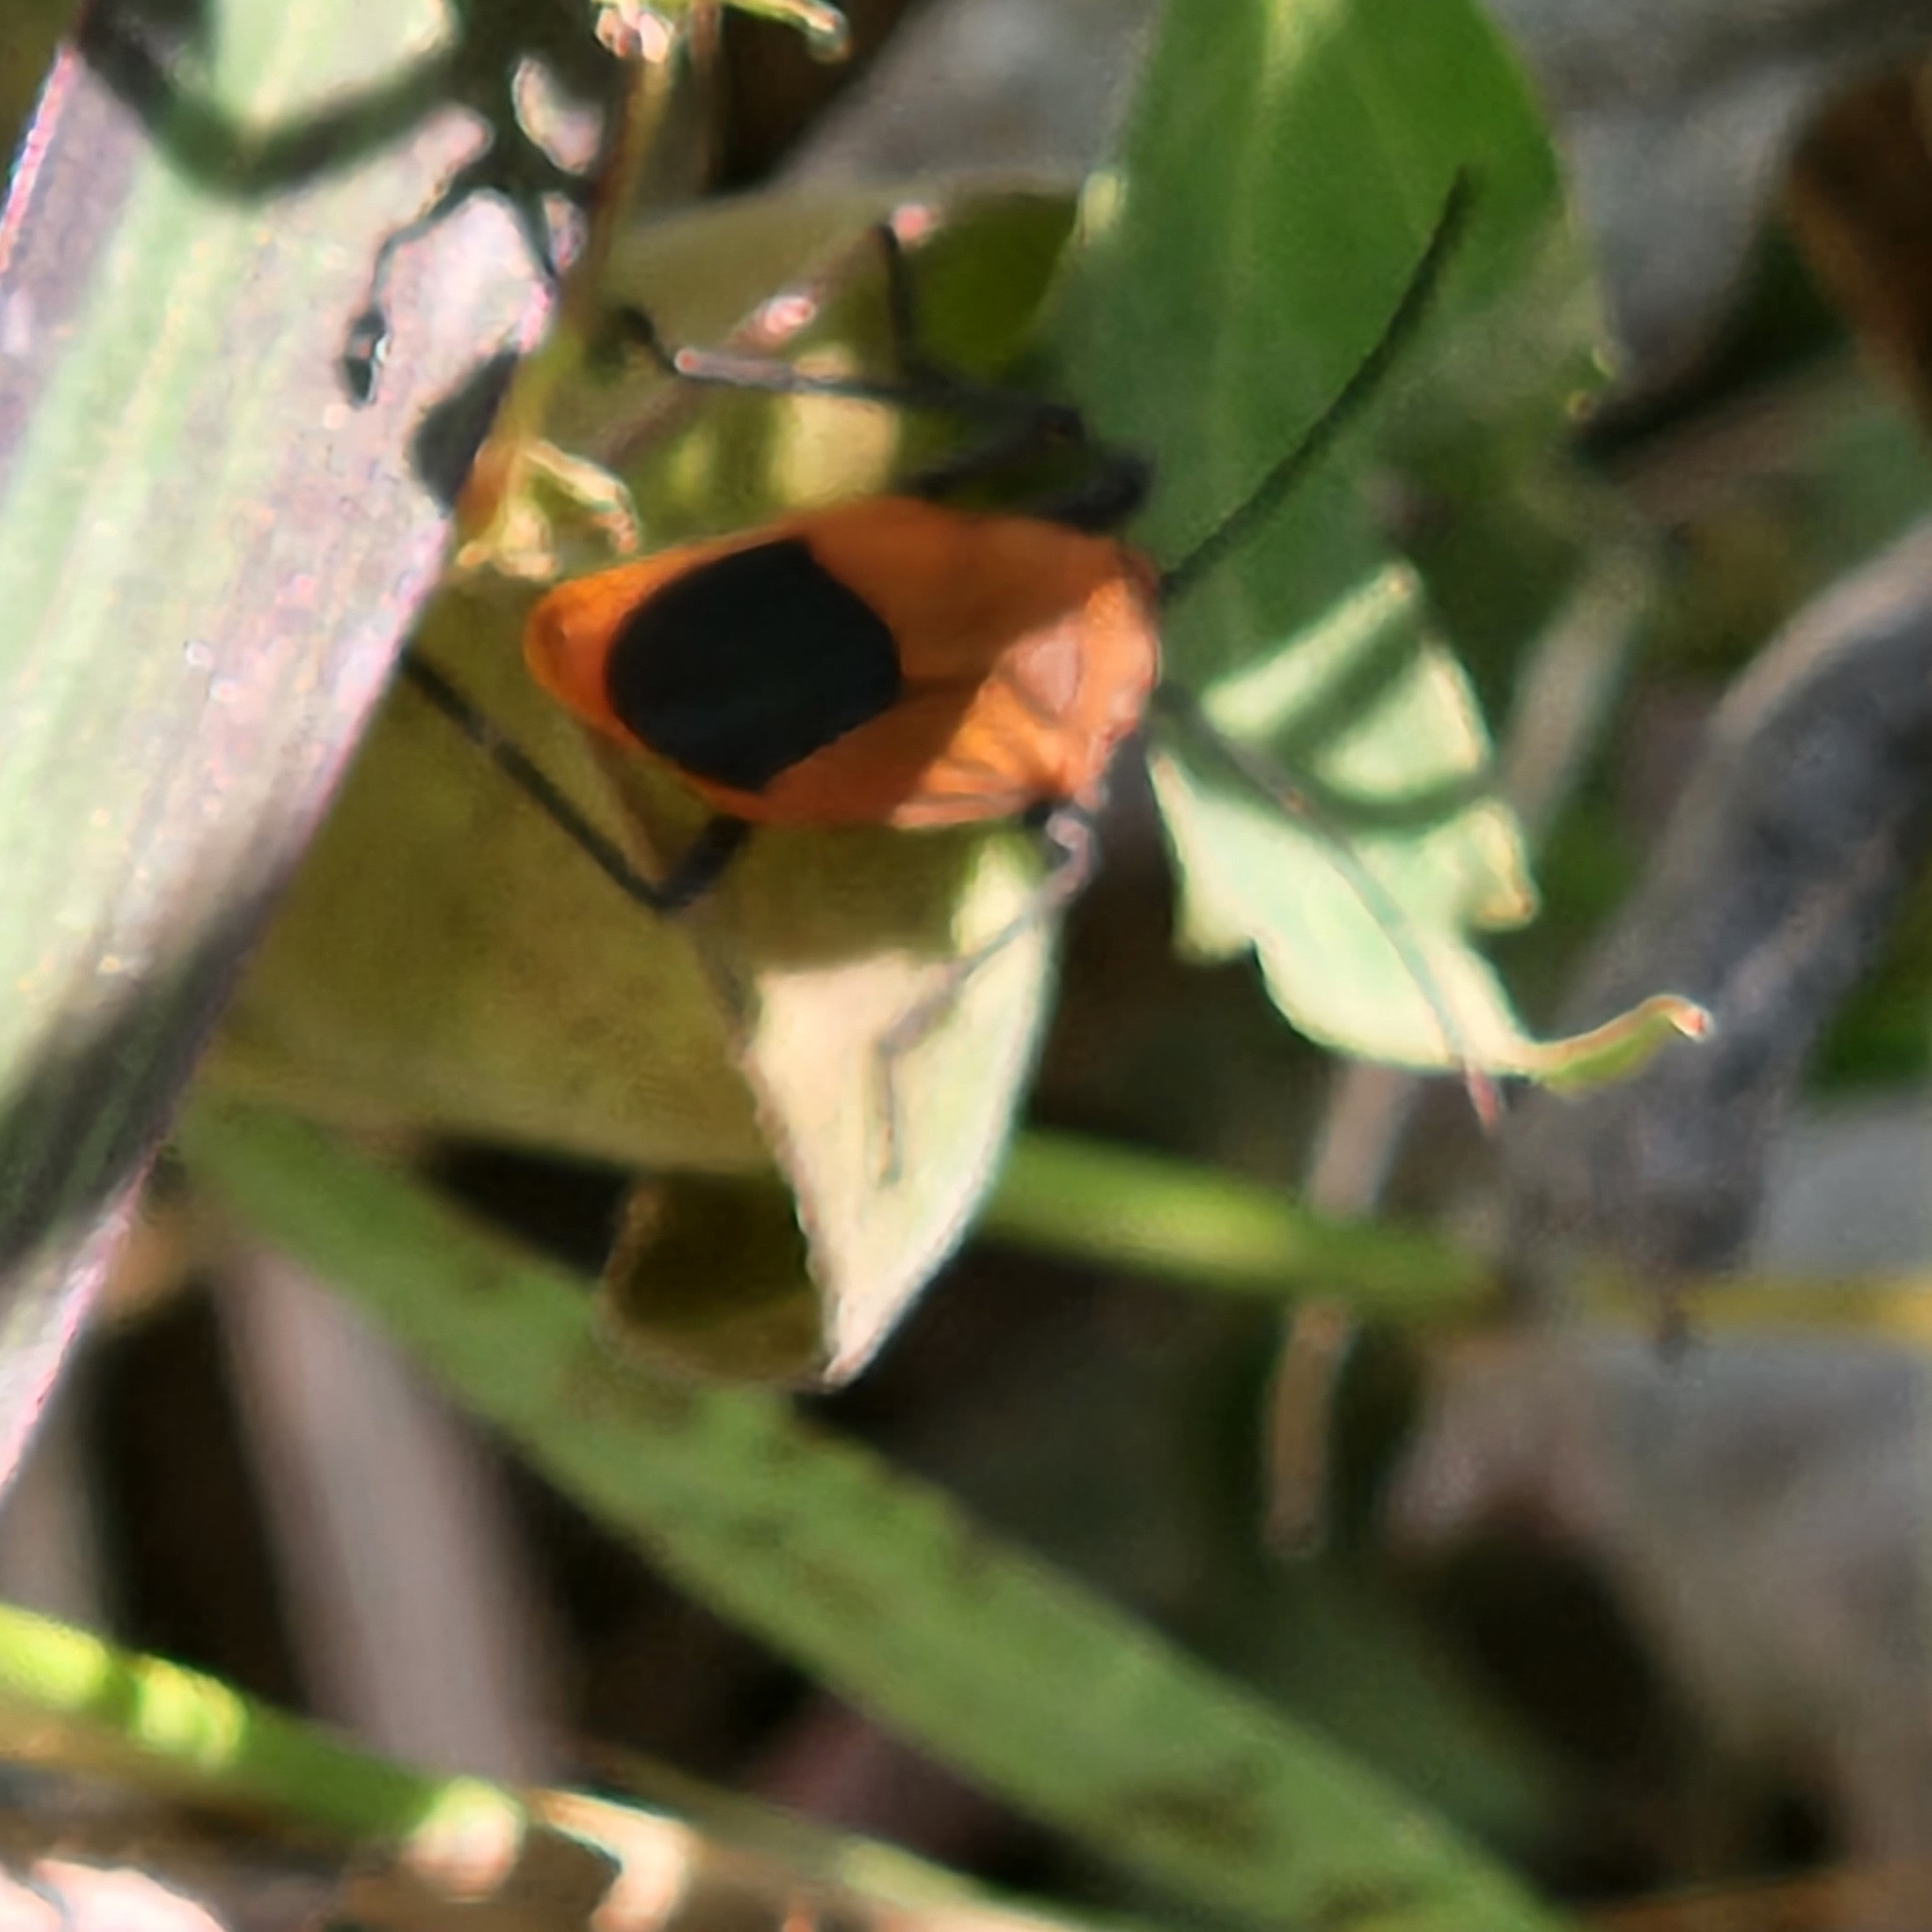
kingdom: Animalia
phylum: Arthropoda
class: Insecta
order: Hemiptera
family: Rhopalidae
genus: Leptocoris
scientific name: Leptocoris augur
